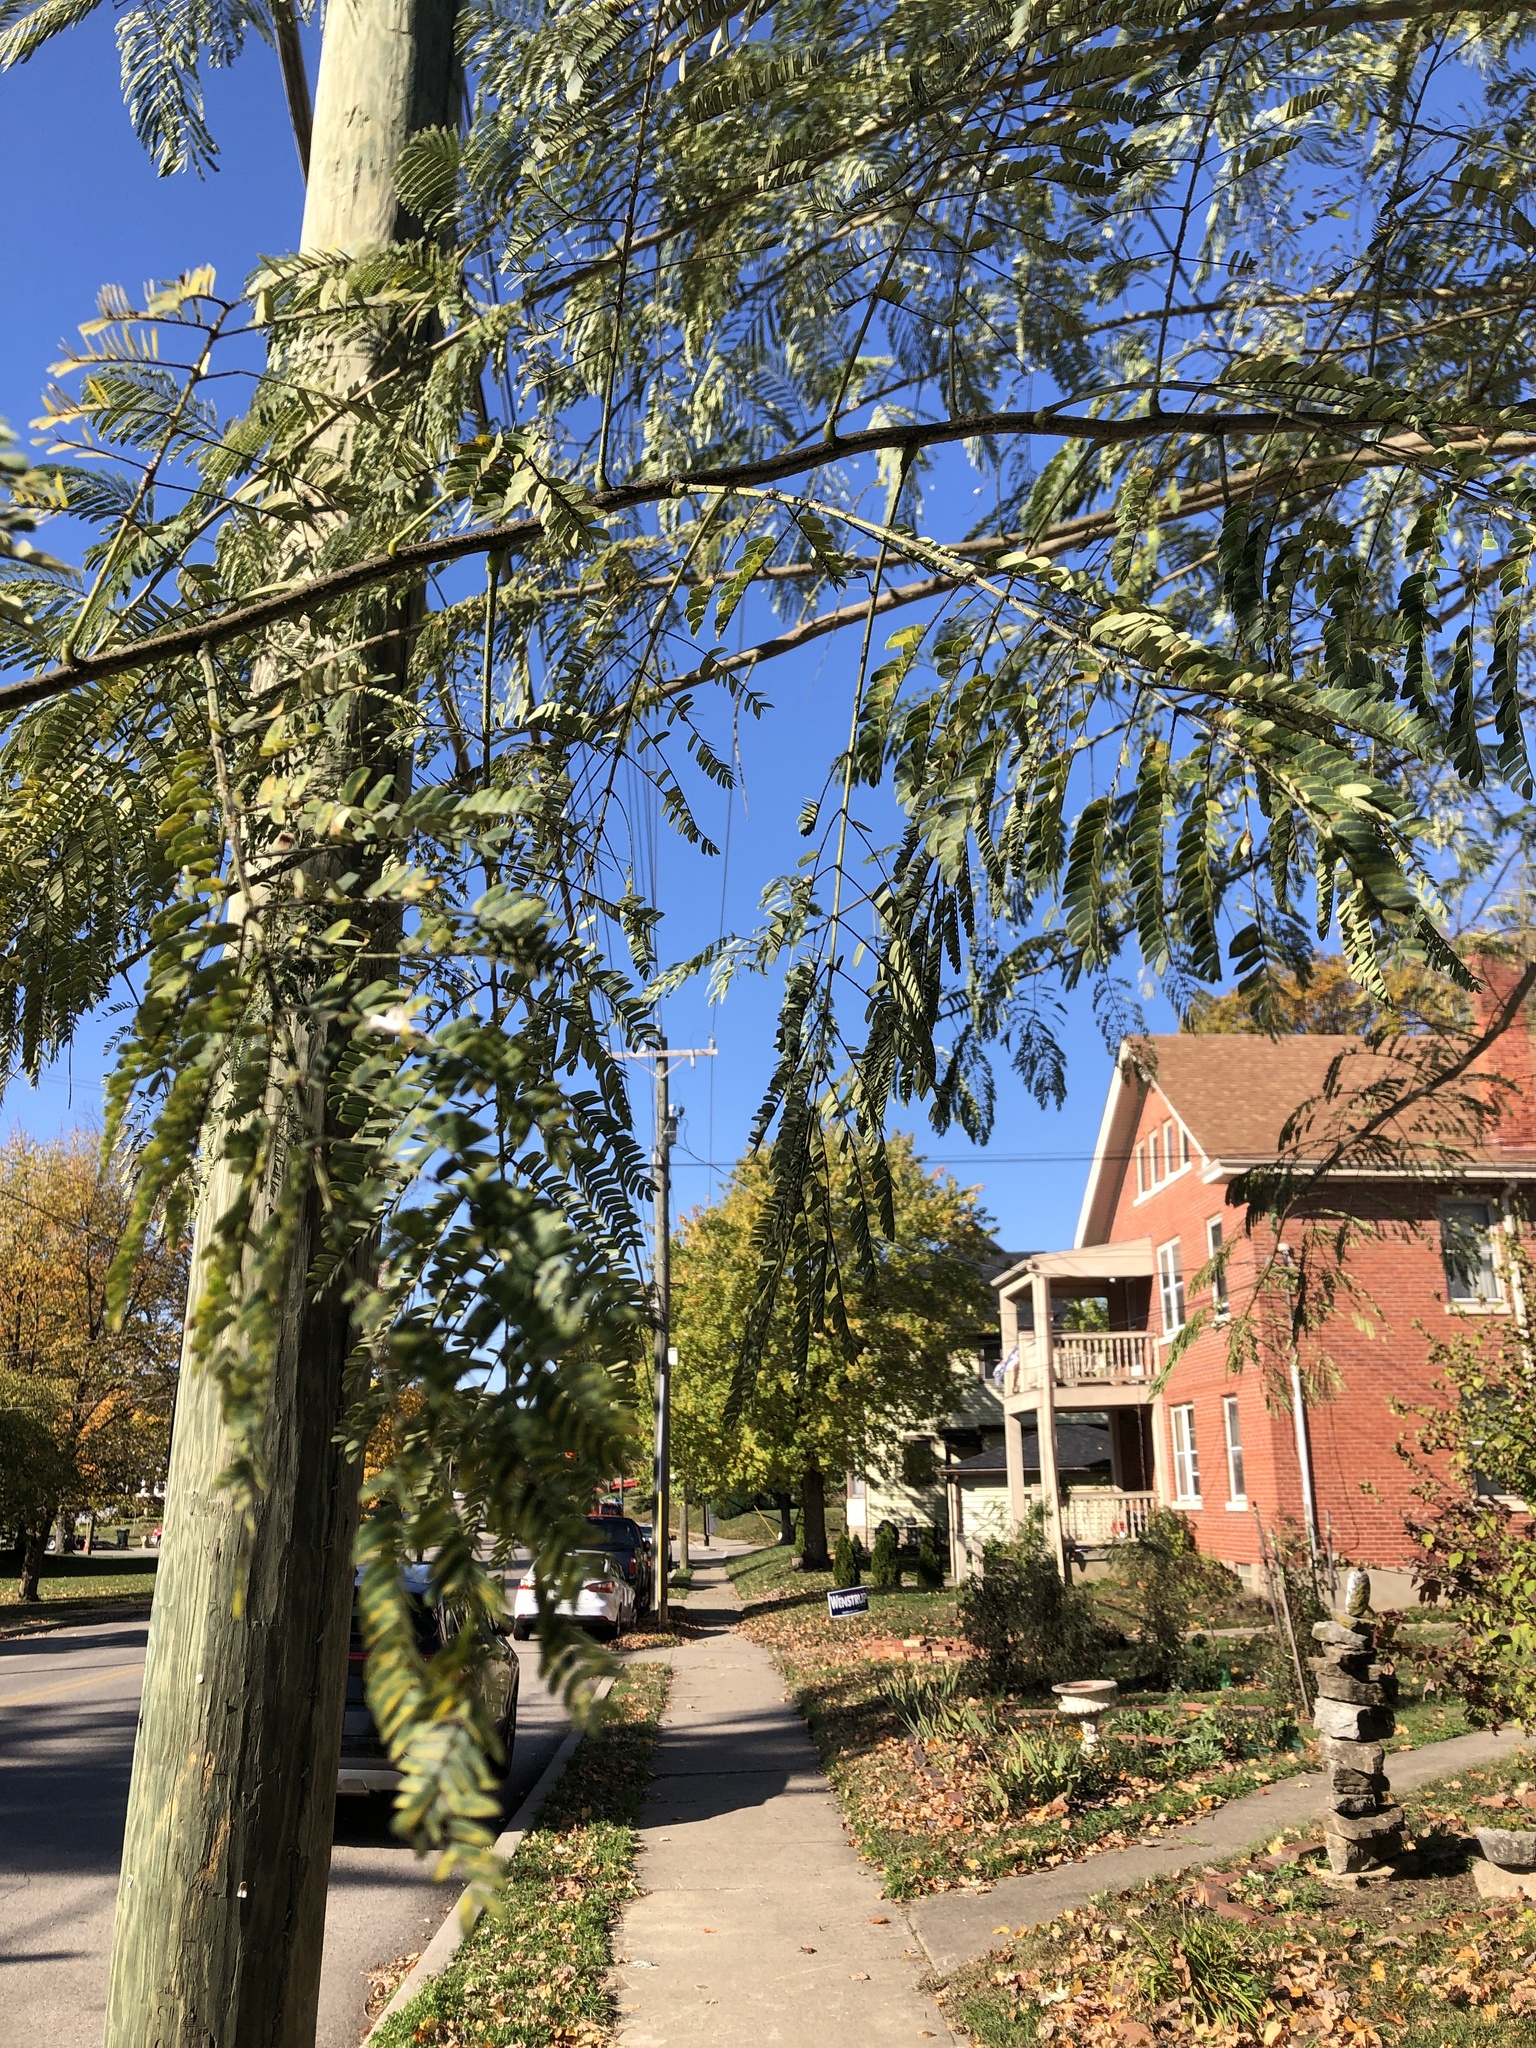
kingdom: Plantae
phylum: Tracheophyta
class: Magnoliopsida
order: Fabales
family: Fabaceae
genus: Albizia
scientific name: Albizia julibrissin
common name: Silktree
